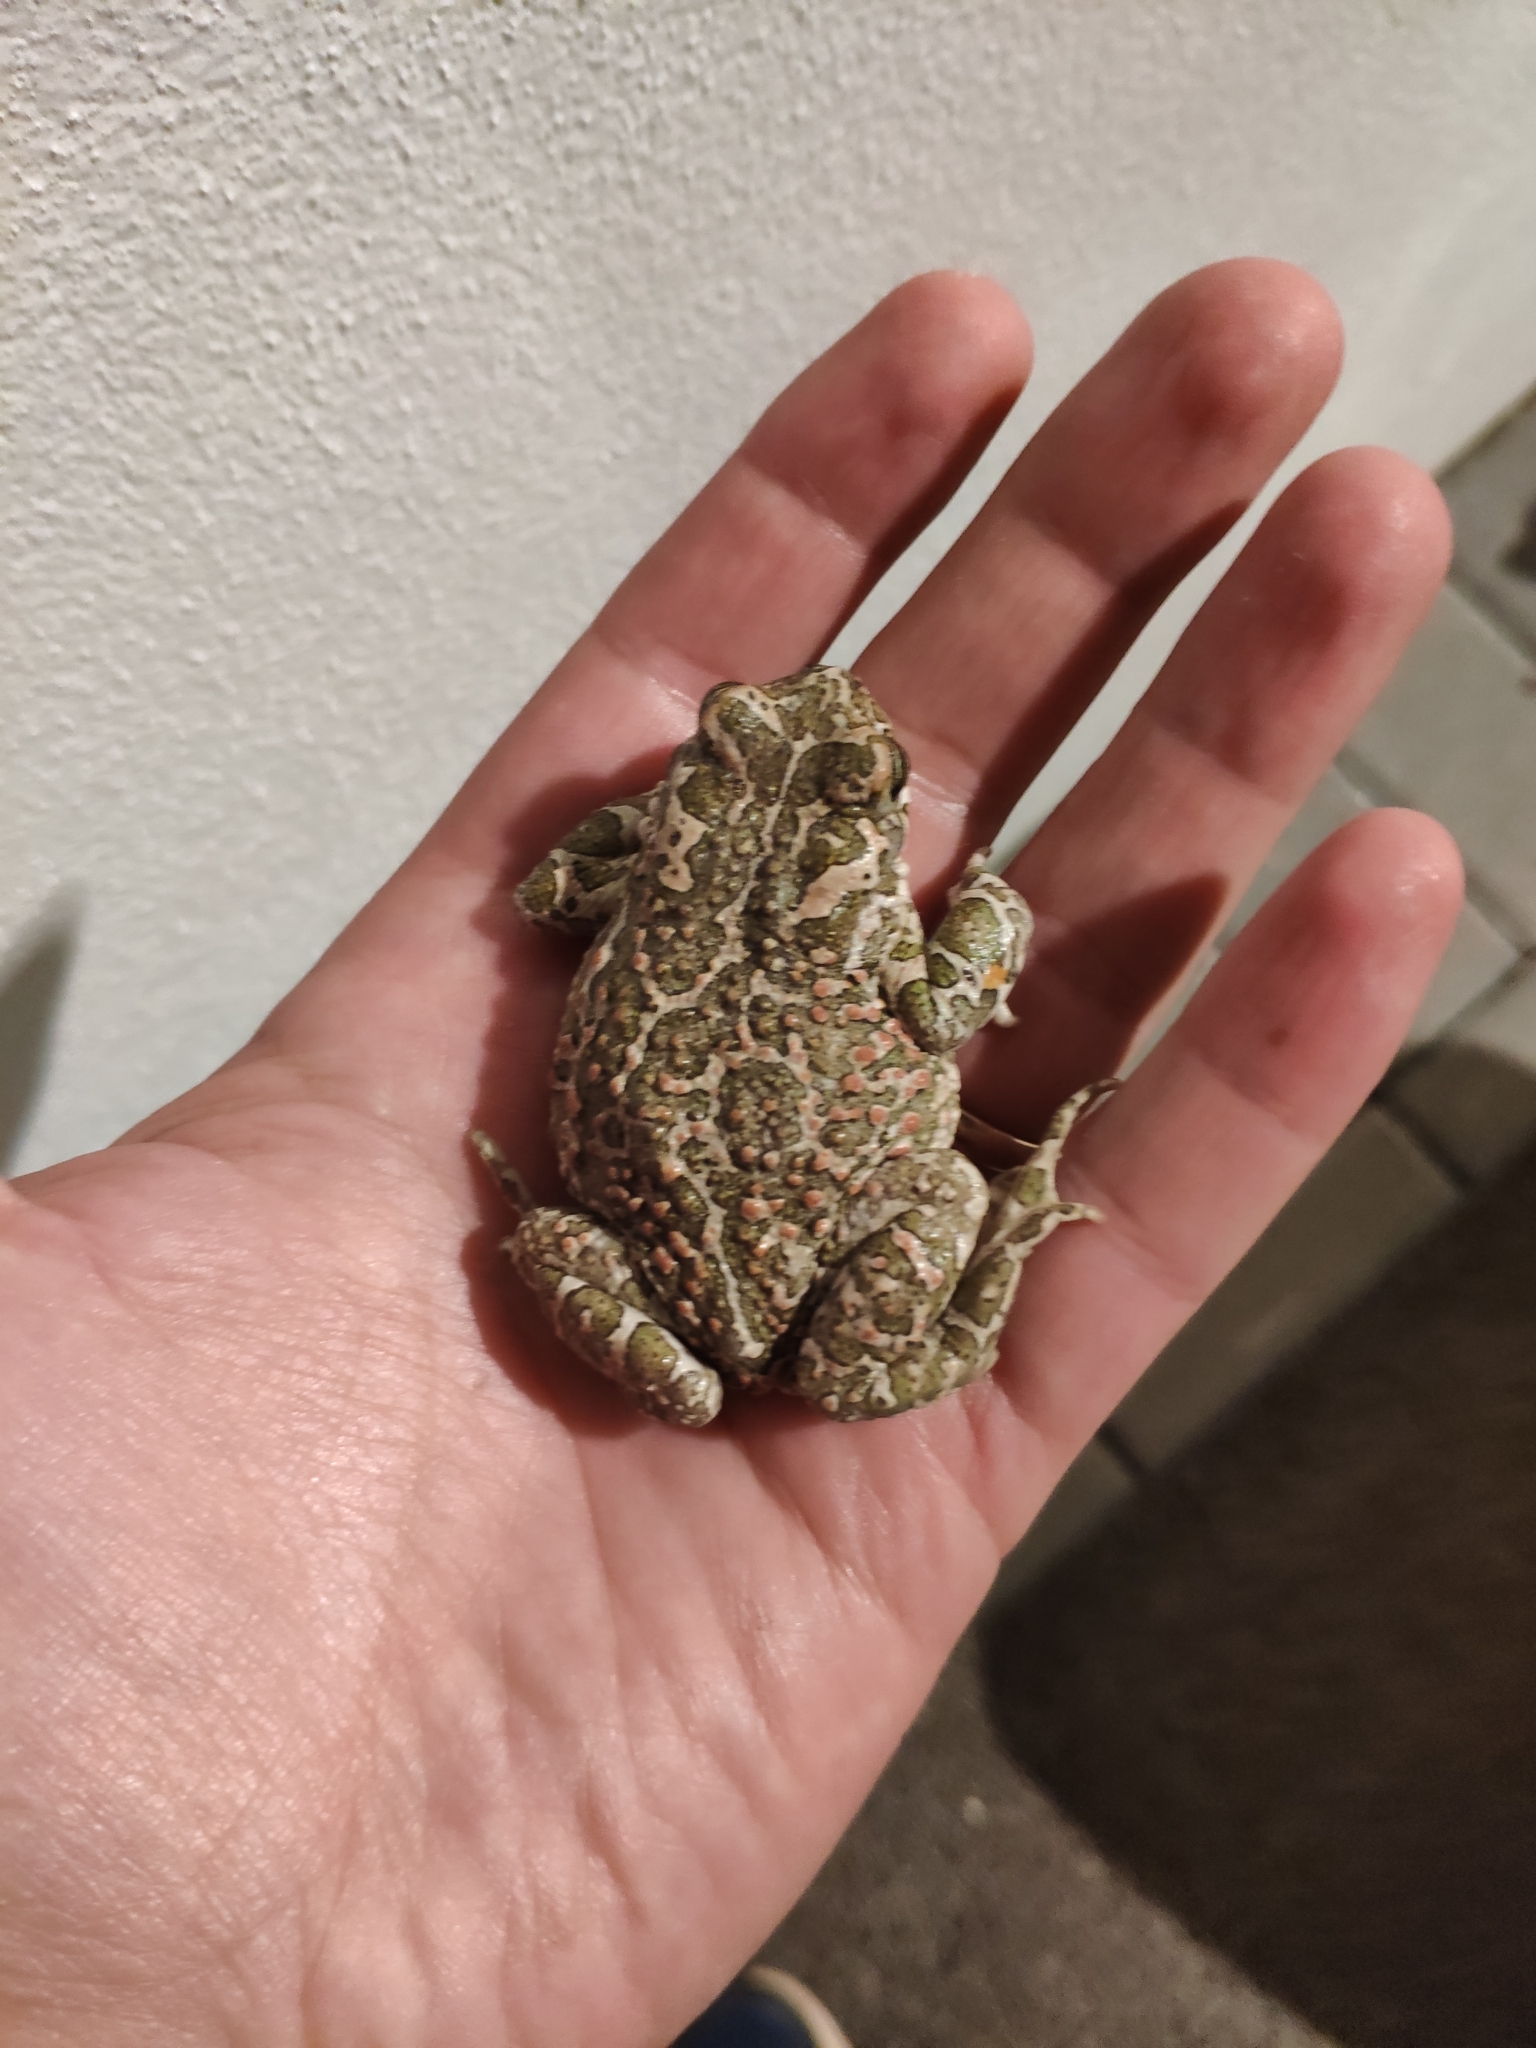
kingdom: Animalia
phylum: Chordata
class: Amphibia
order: Anura
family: Bufonidae
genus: Bufotes
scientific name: Bufotes viridis
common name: European green toad
